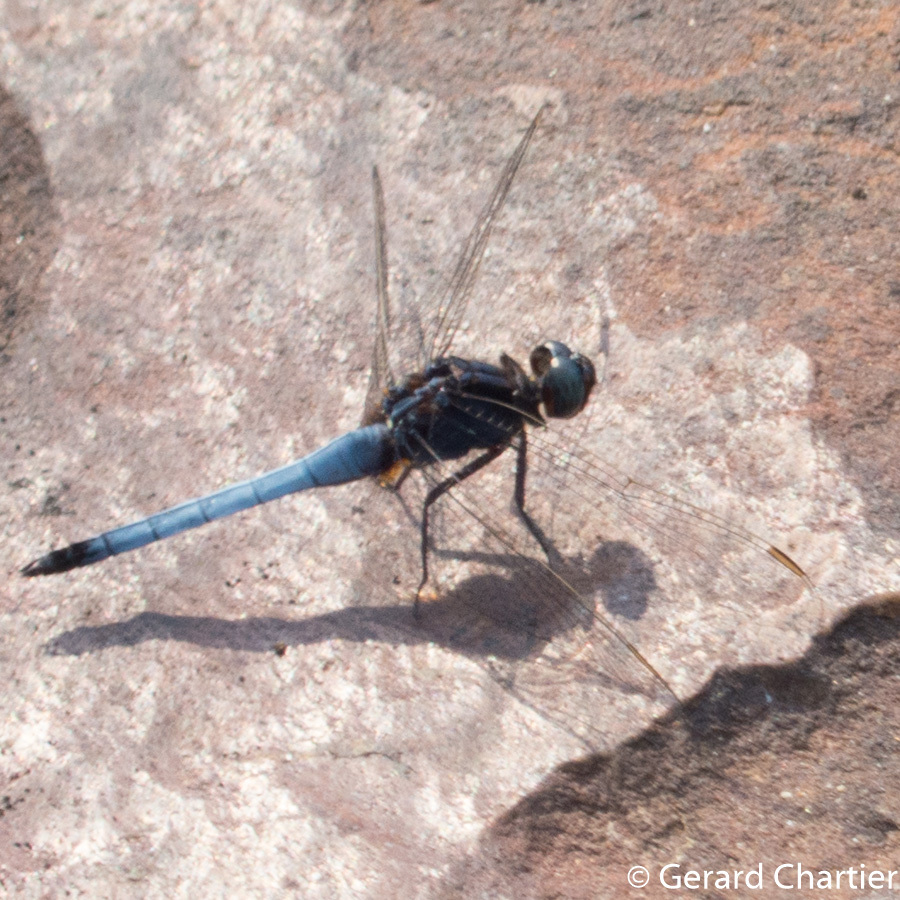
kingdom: Animalia
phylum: Arthropoda
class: Insecta
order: Odonata
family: Libellulidae
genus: Orthetrum
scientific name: Orthetrum glaucum
